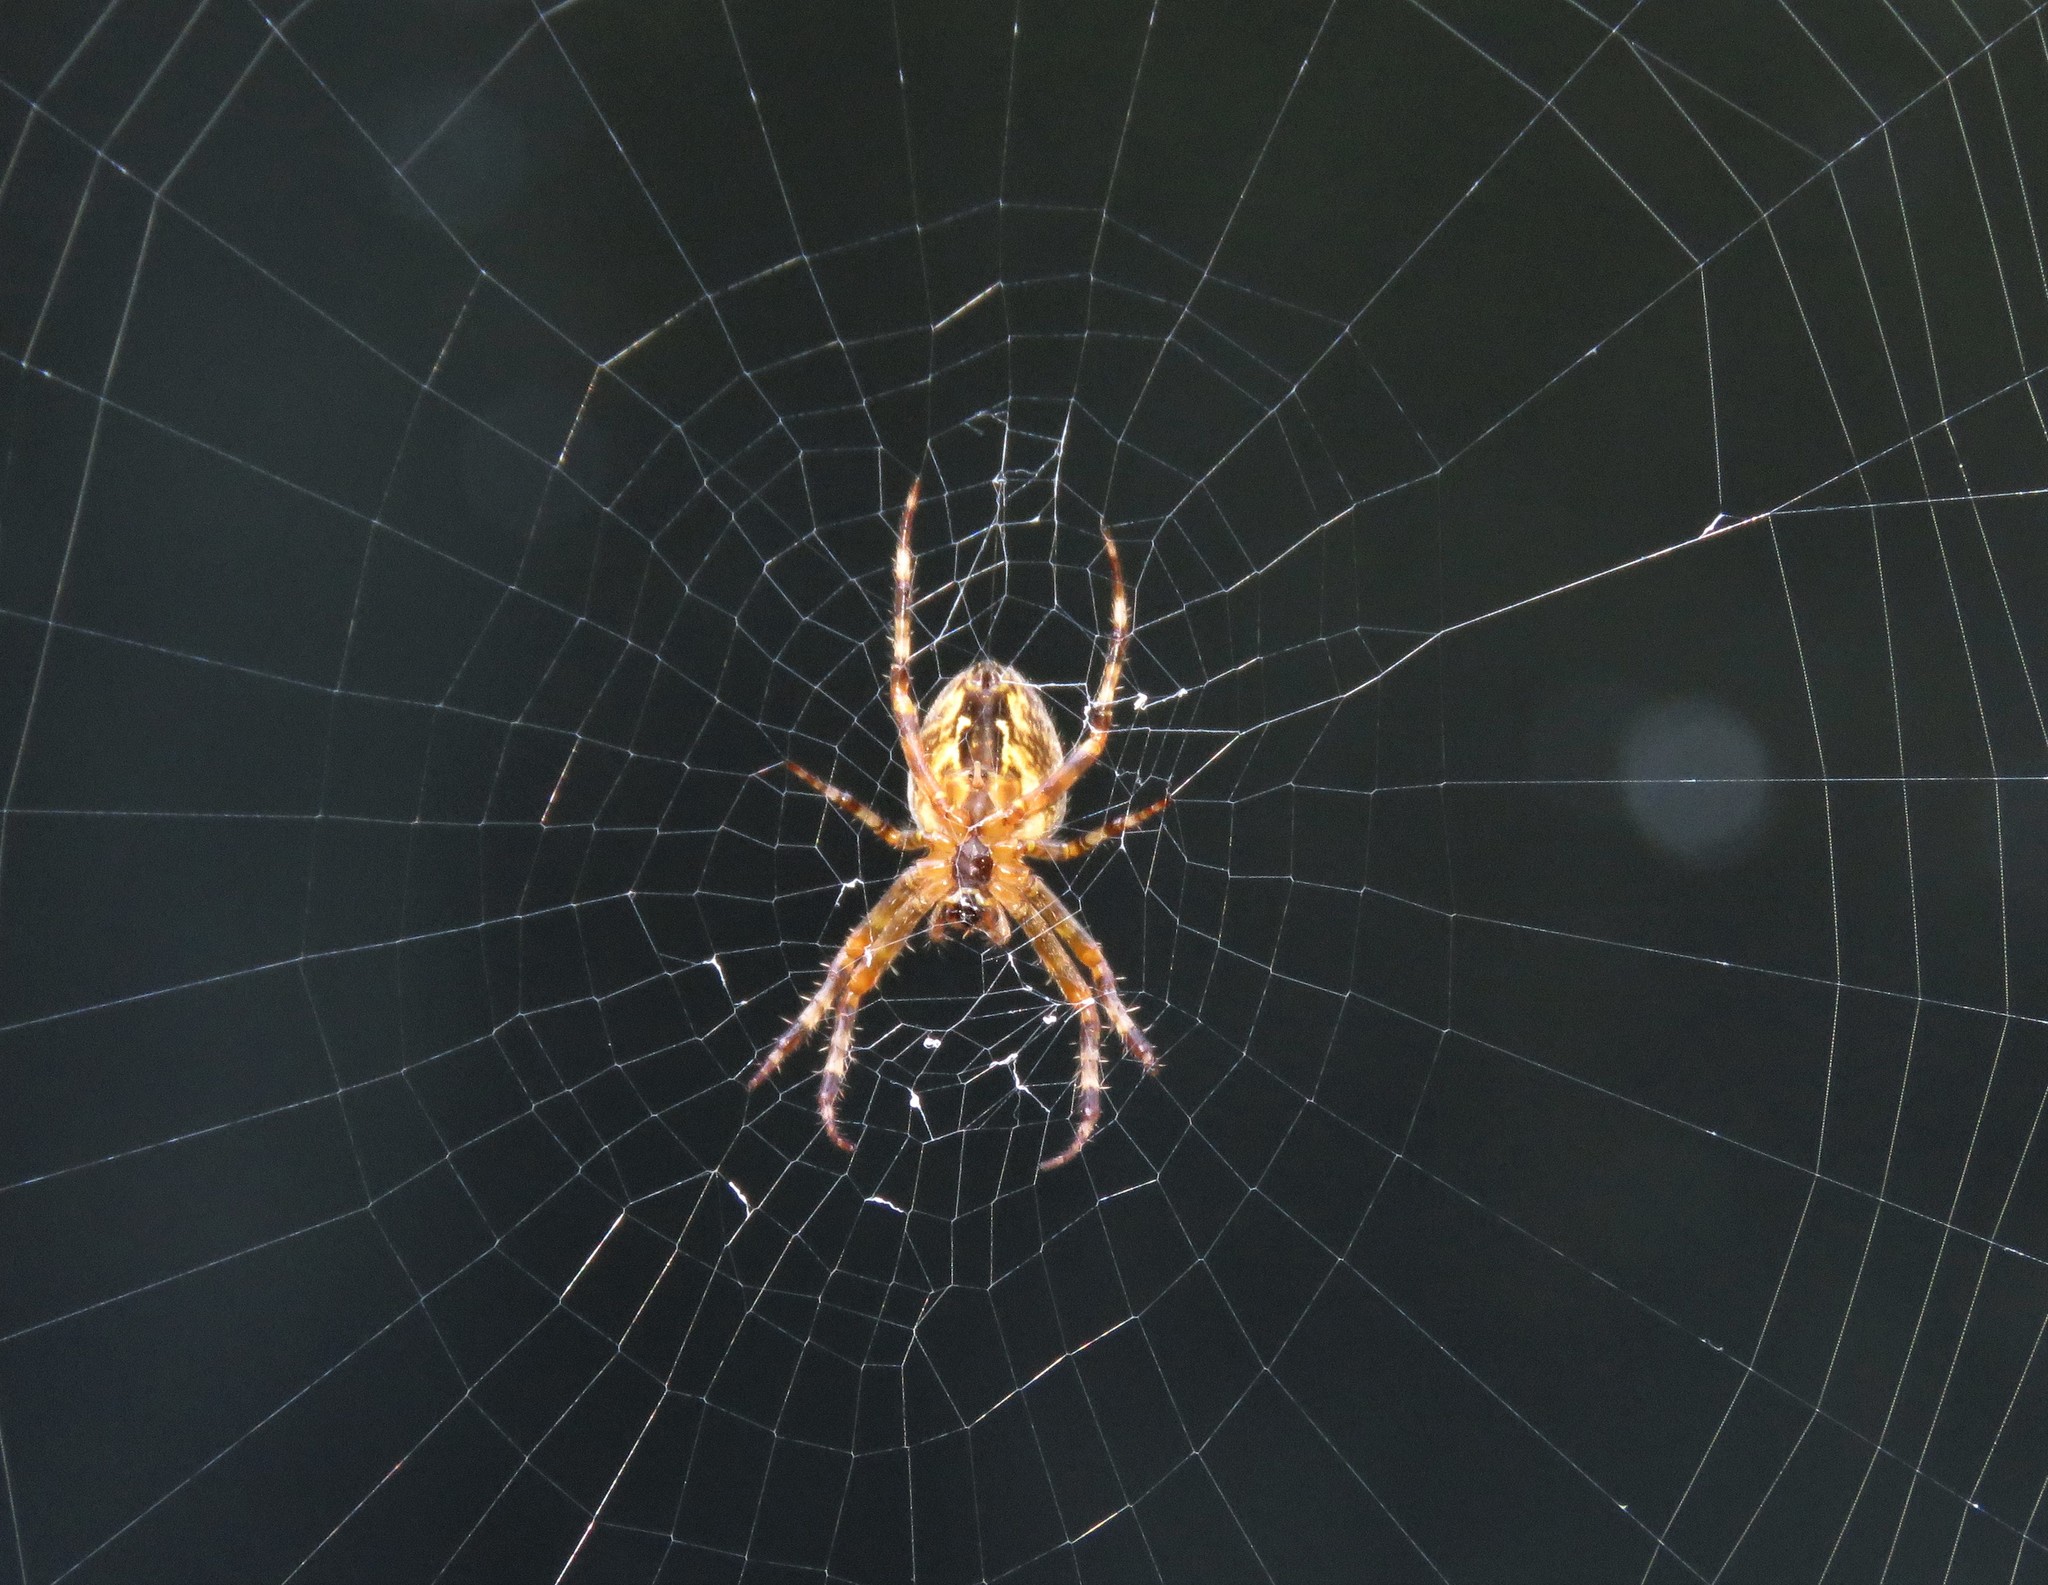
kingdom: Animalia
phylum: Arthropoda
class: Arachnida
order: Araneae
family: Araneidae
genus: Araneus
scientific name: Araneus diadematus
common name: Cross orbweaver
